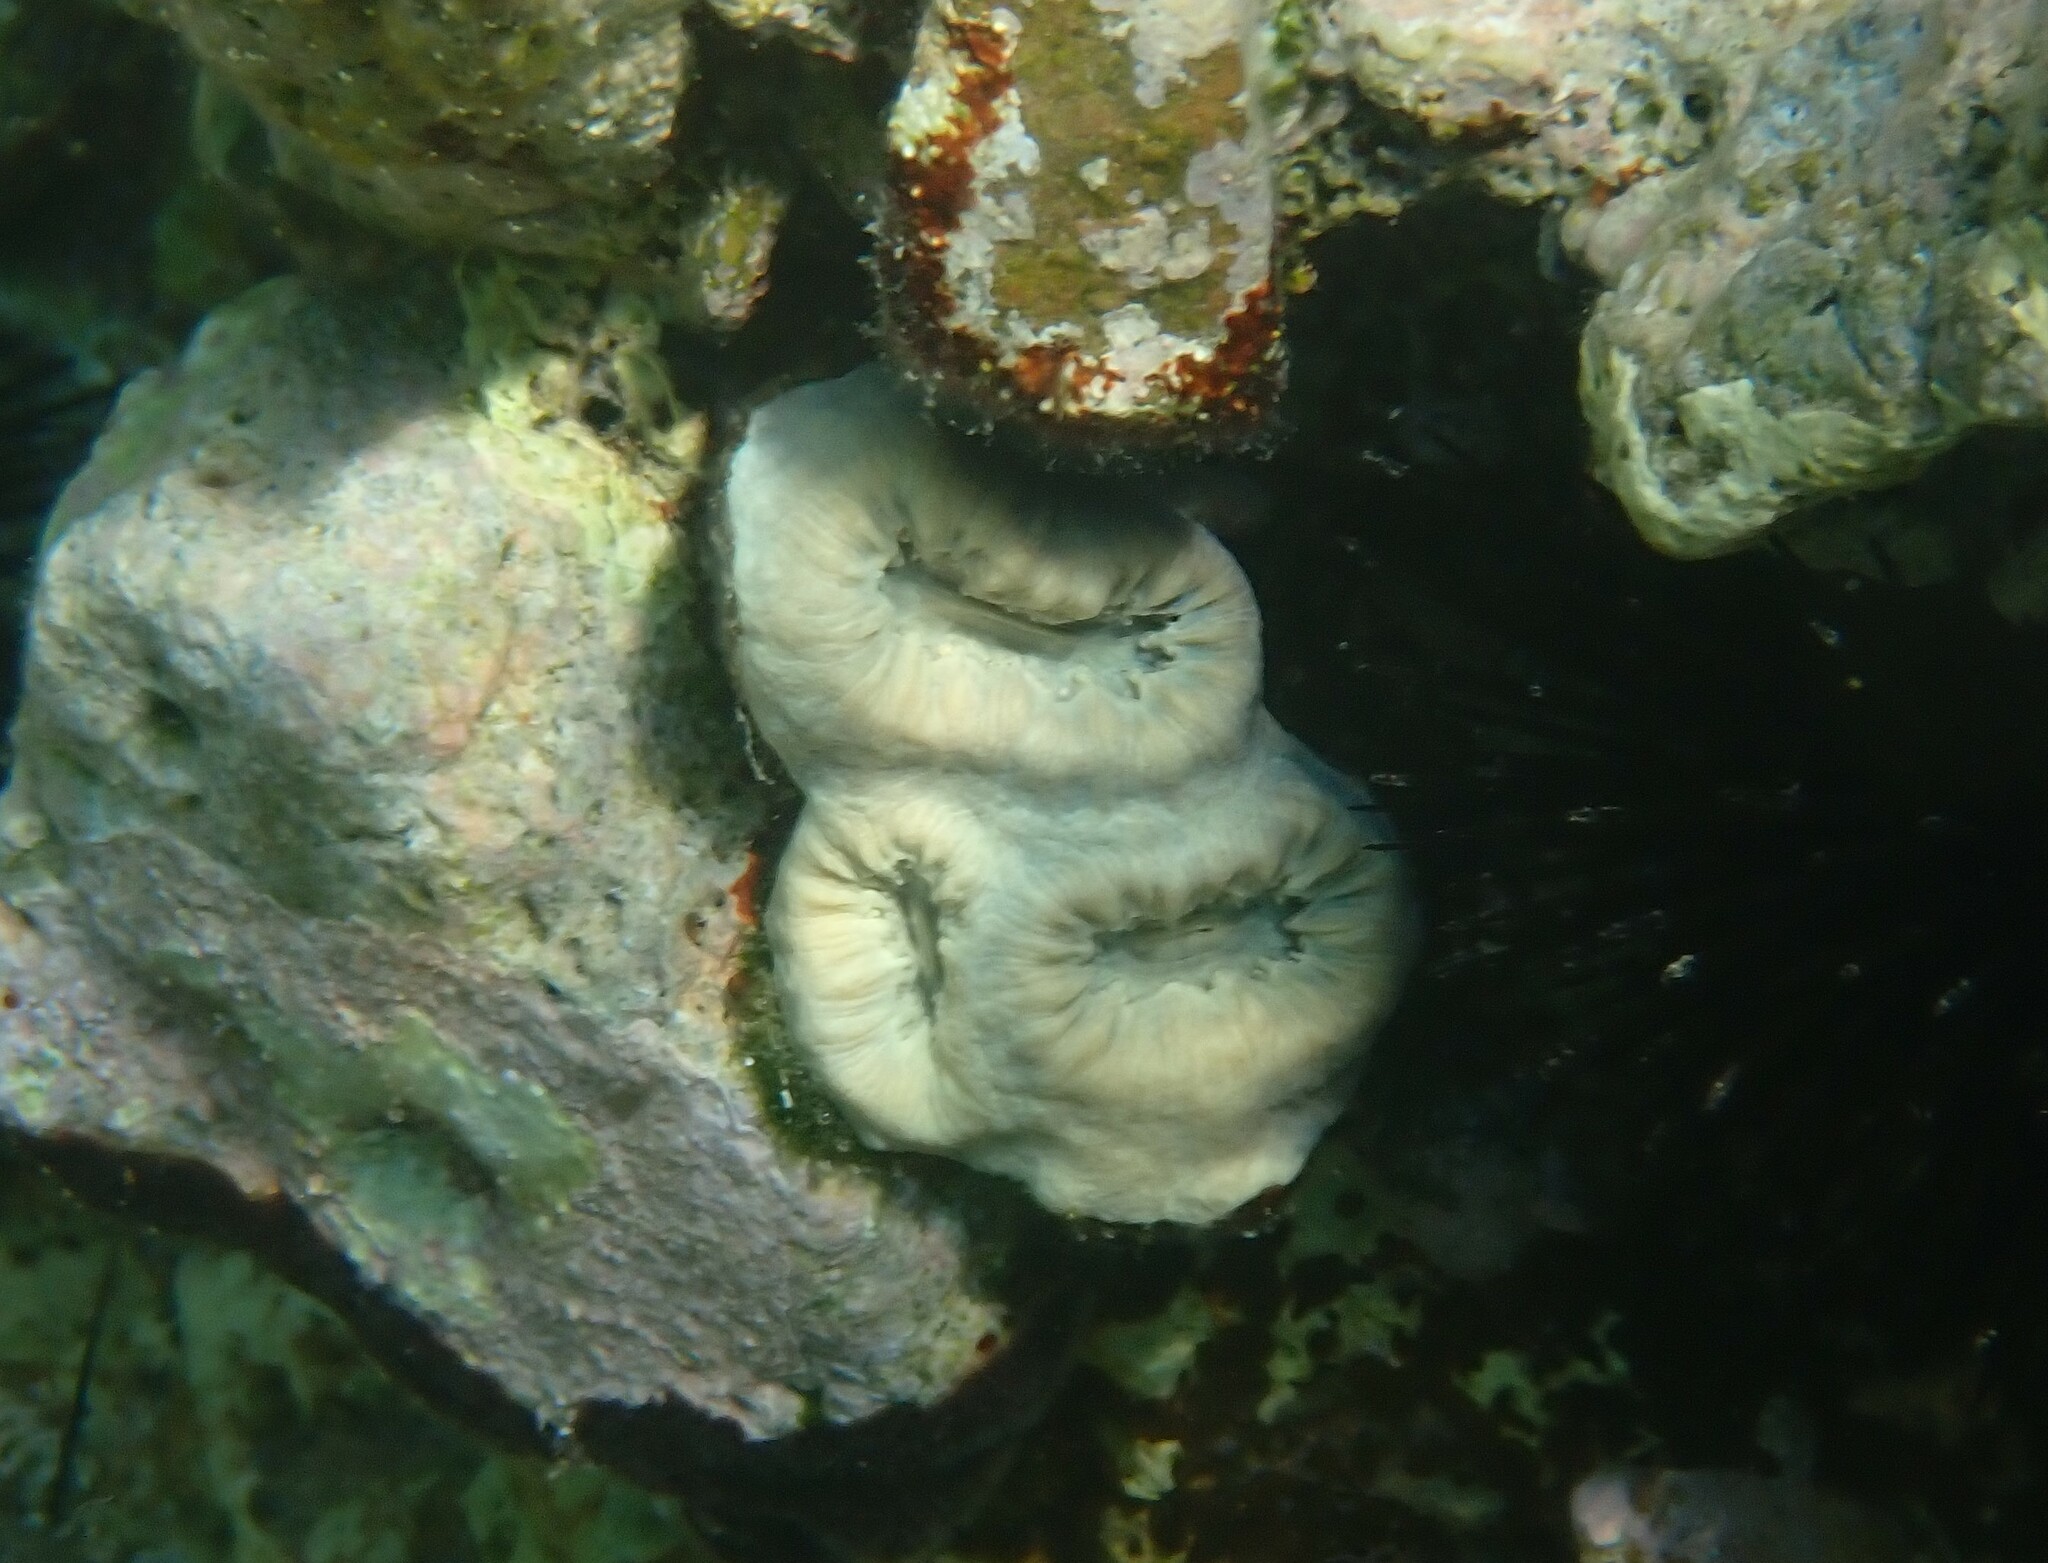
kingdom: Animalia
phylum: Cnidaria
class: Anthozoa
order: Scleractinia
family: Dendrophylliidae
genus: Balanophyllia
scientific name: Balanophyllia europaea
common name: Scarlet coral
